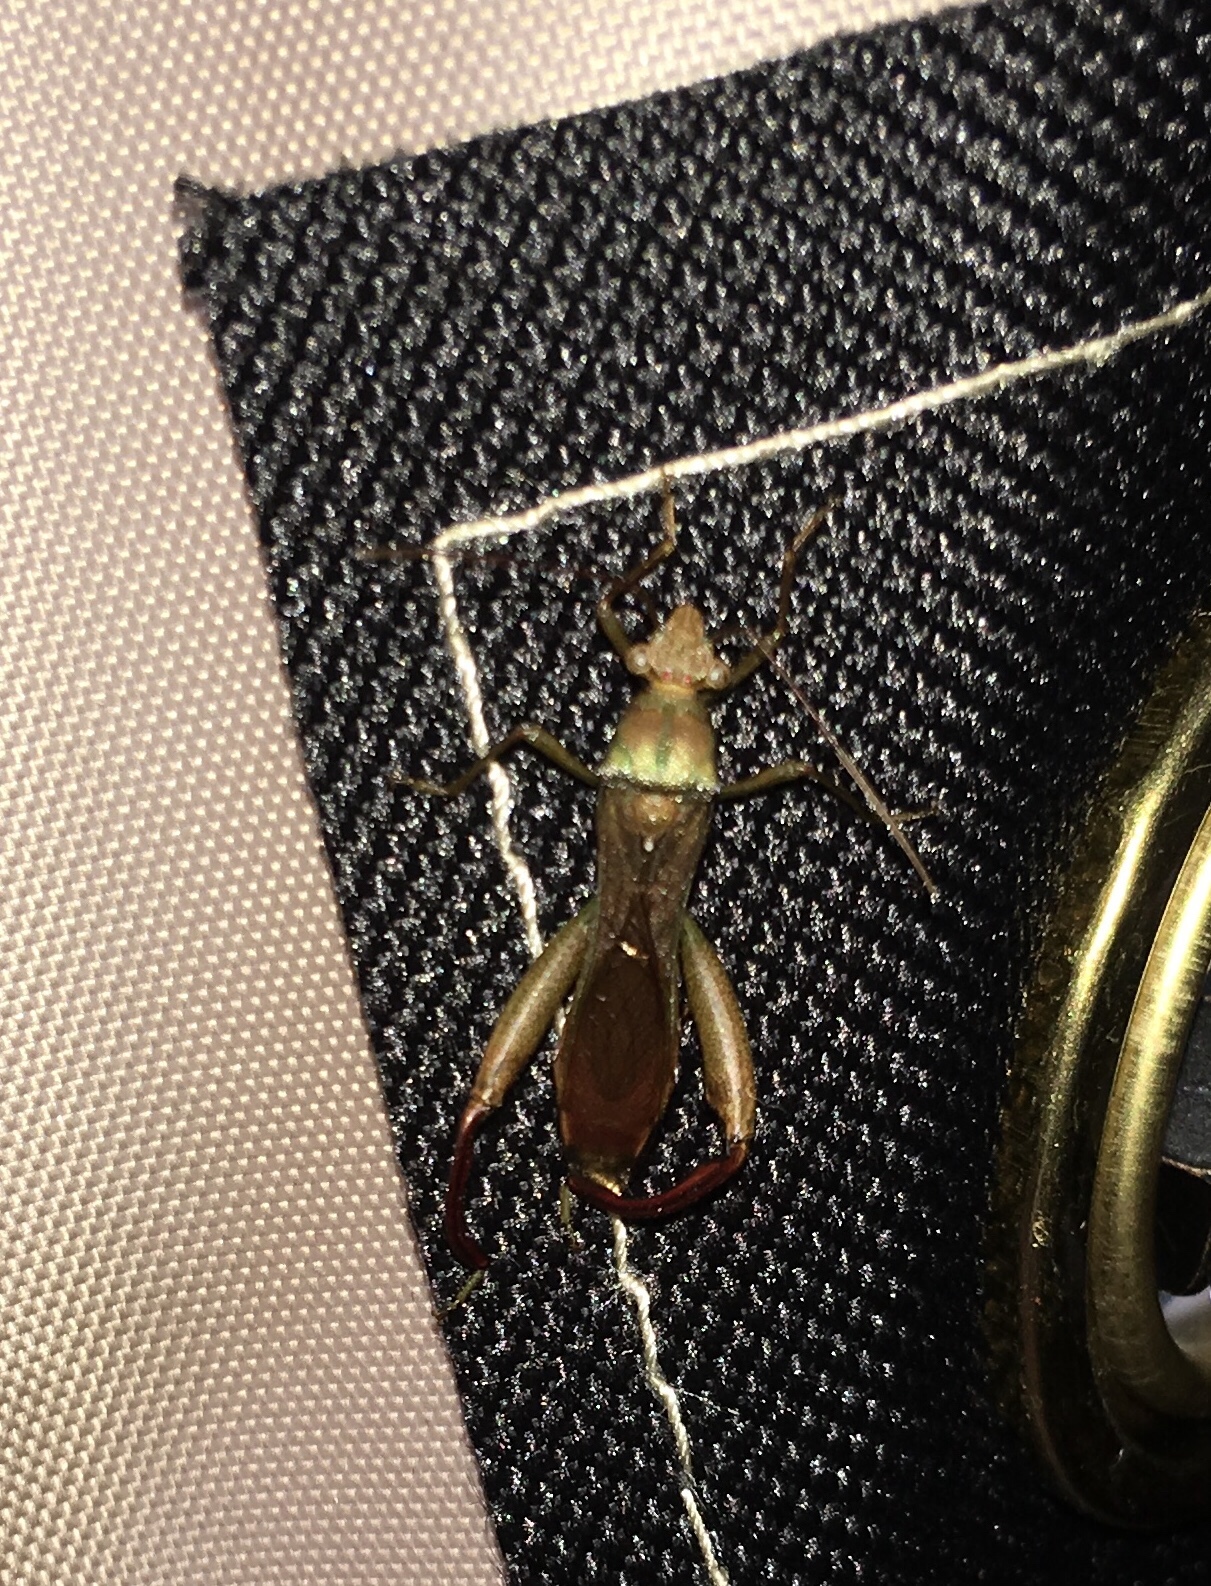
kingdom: Animalia
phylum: Arthropoda
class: Insecta
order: Hemiptera
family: Alydidae
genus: Hyalymenus
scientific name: Hyalymenus tarsatus
